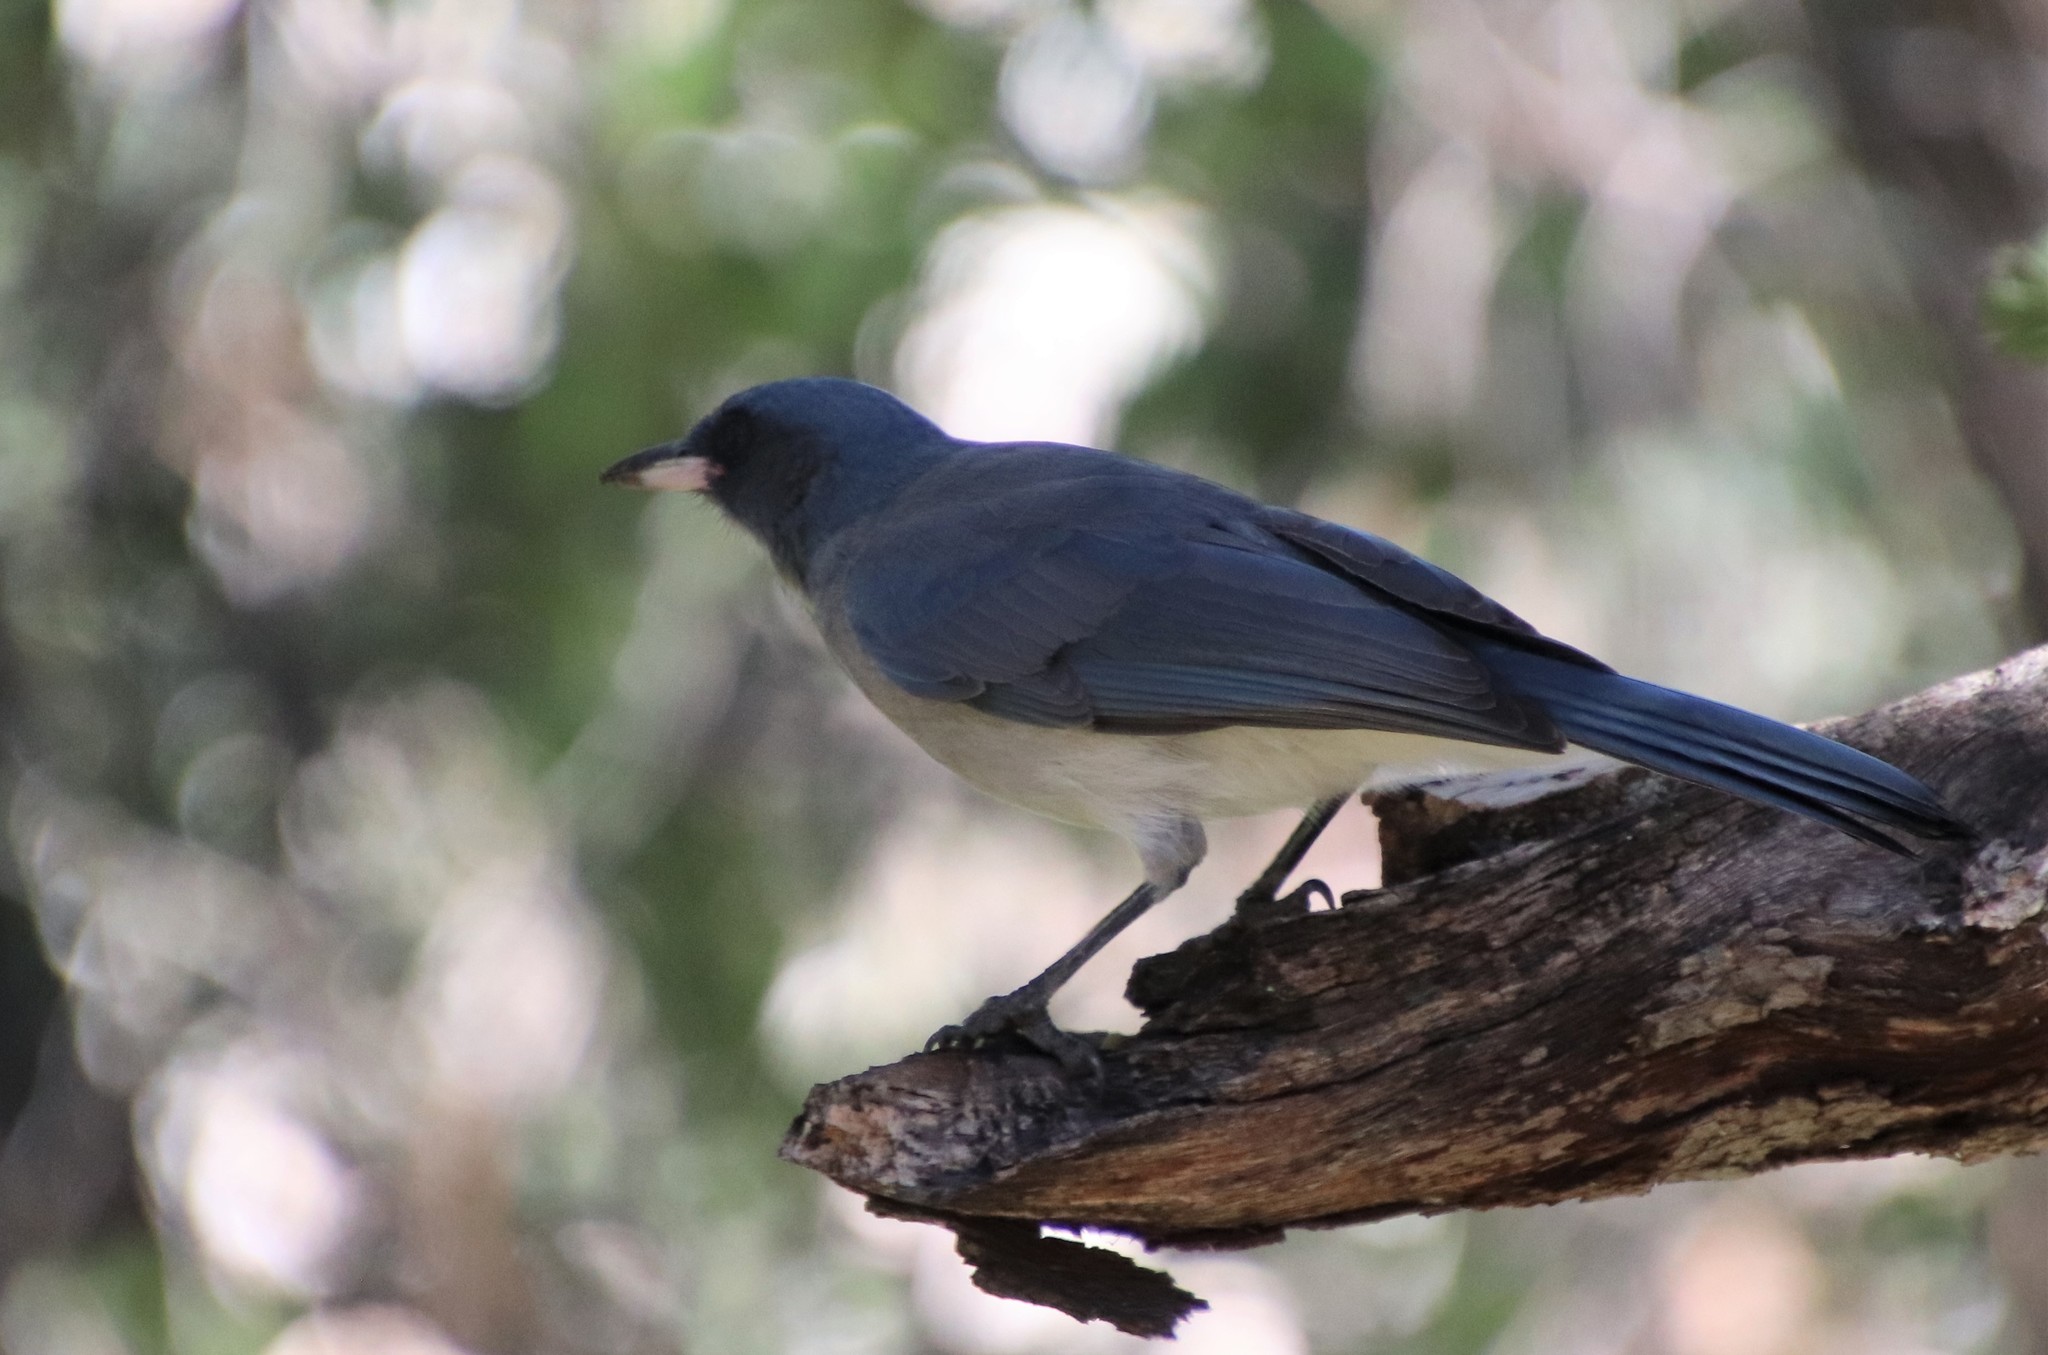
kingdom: Animalia
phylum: Chordata
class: Aves
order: Passeriformes
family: Corvidae
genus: Aphelocoma
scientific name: Aphelocoma wollweberi
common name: Mexican jay
